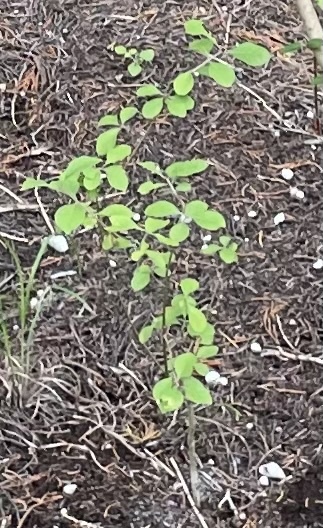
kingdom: Plantae
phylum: Tracheophyta
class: Magnoliopsida
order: Lamiales
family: Oleaceae
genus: Forestiera
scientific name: Forestiera pubescens
